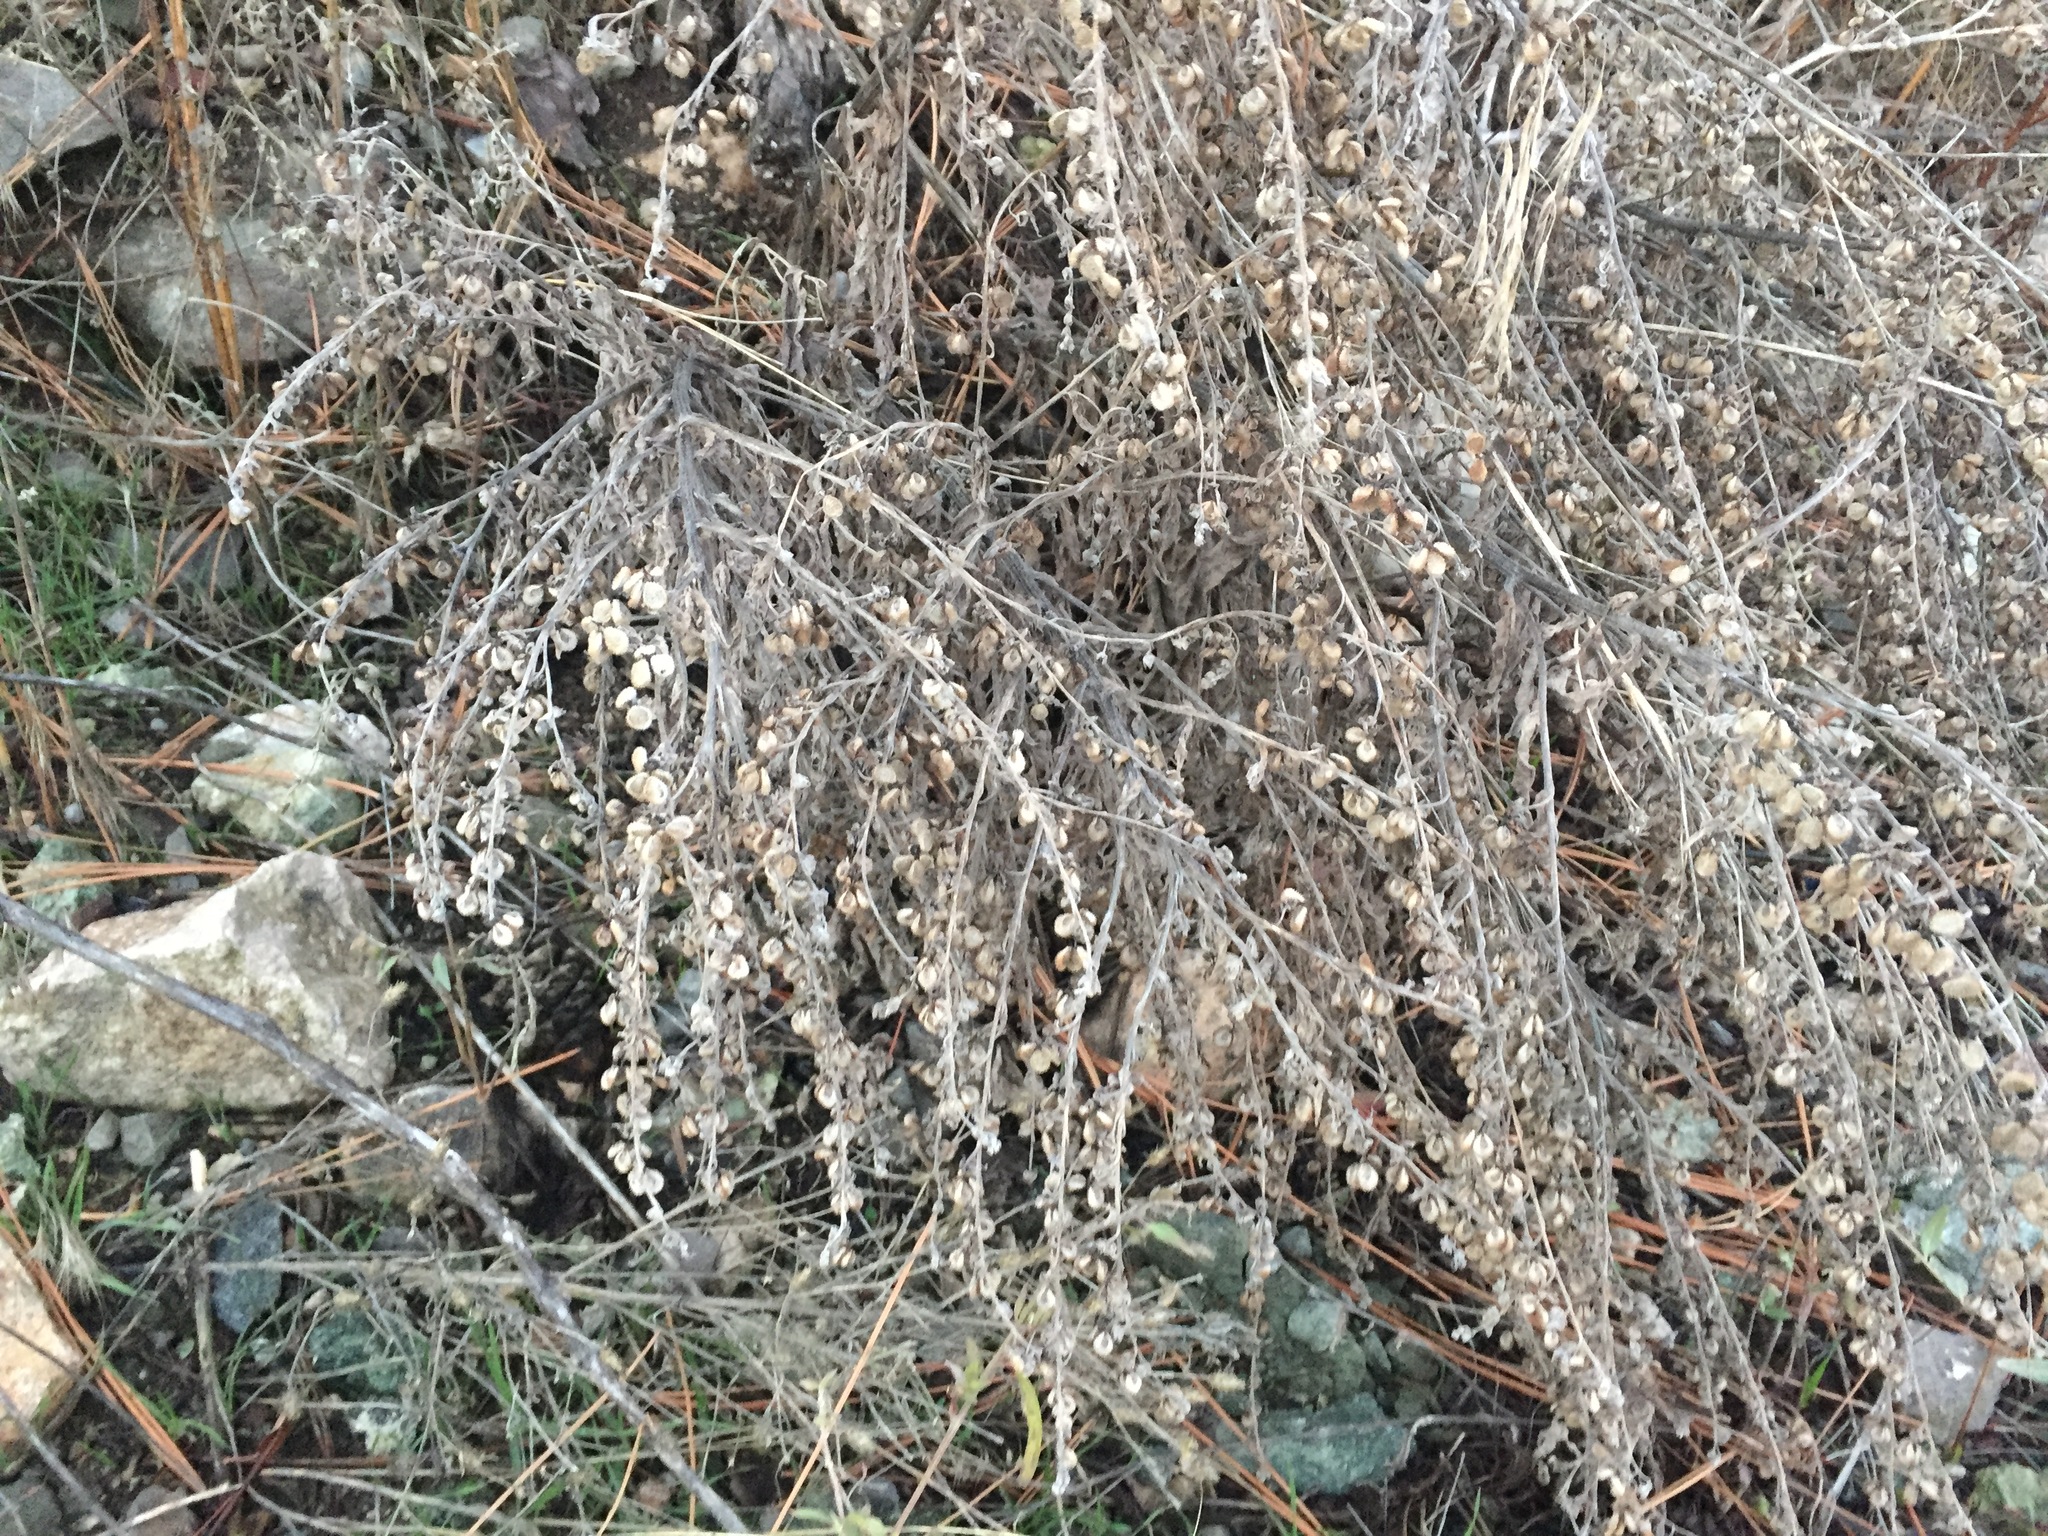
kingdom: Plantae
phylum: Tracheophyta
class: Magnoliopsida
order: Boraginales
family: Boraginaceae
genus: Cynoglossum
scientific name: Cynoglossum officinale
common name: Hound's-tongue
